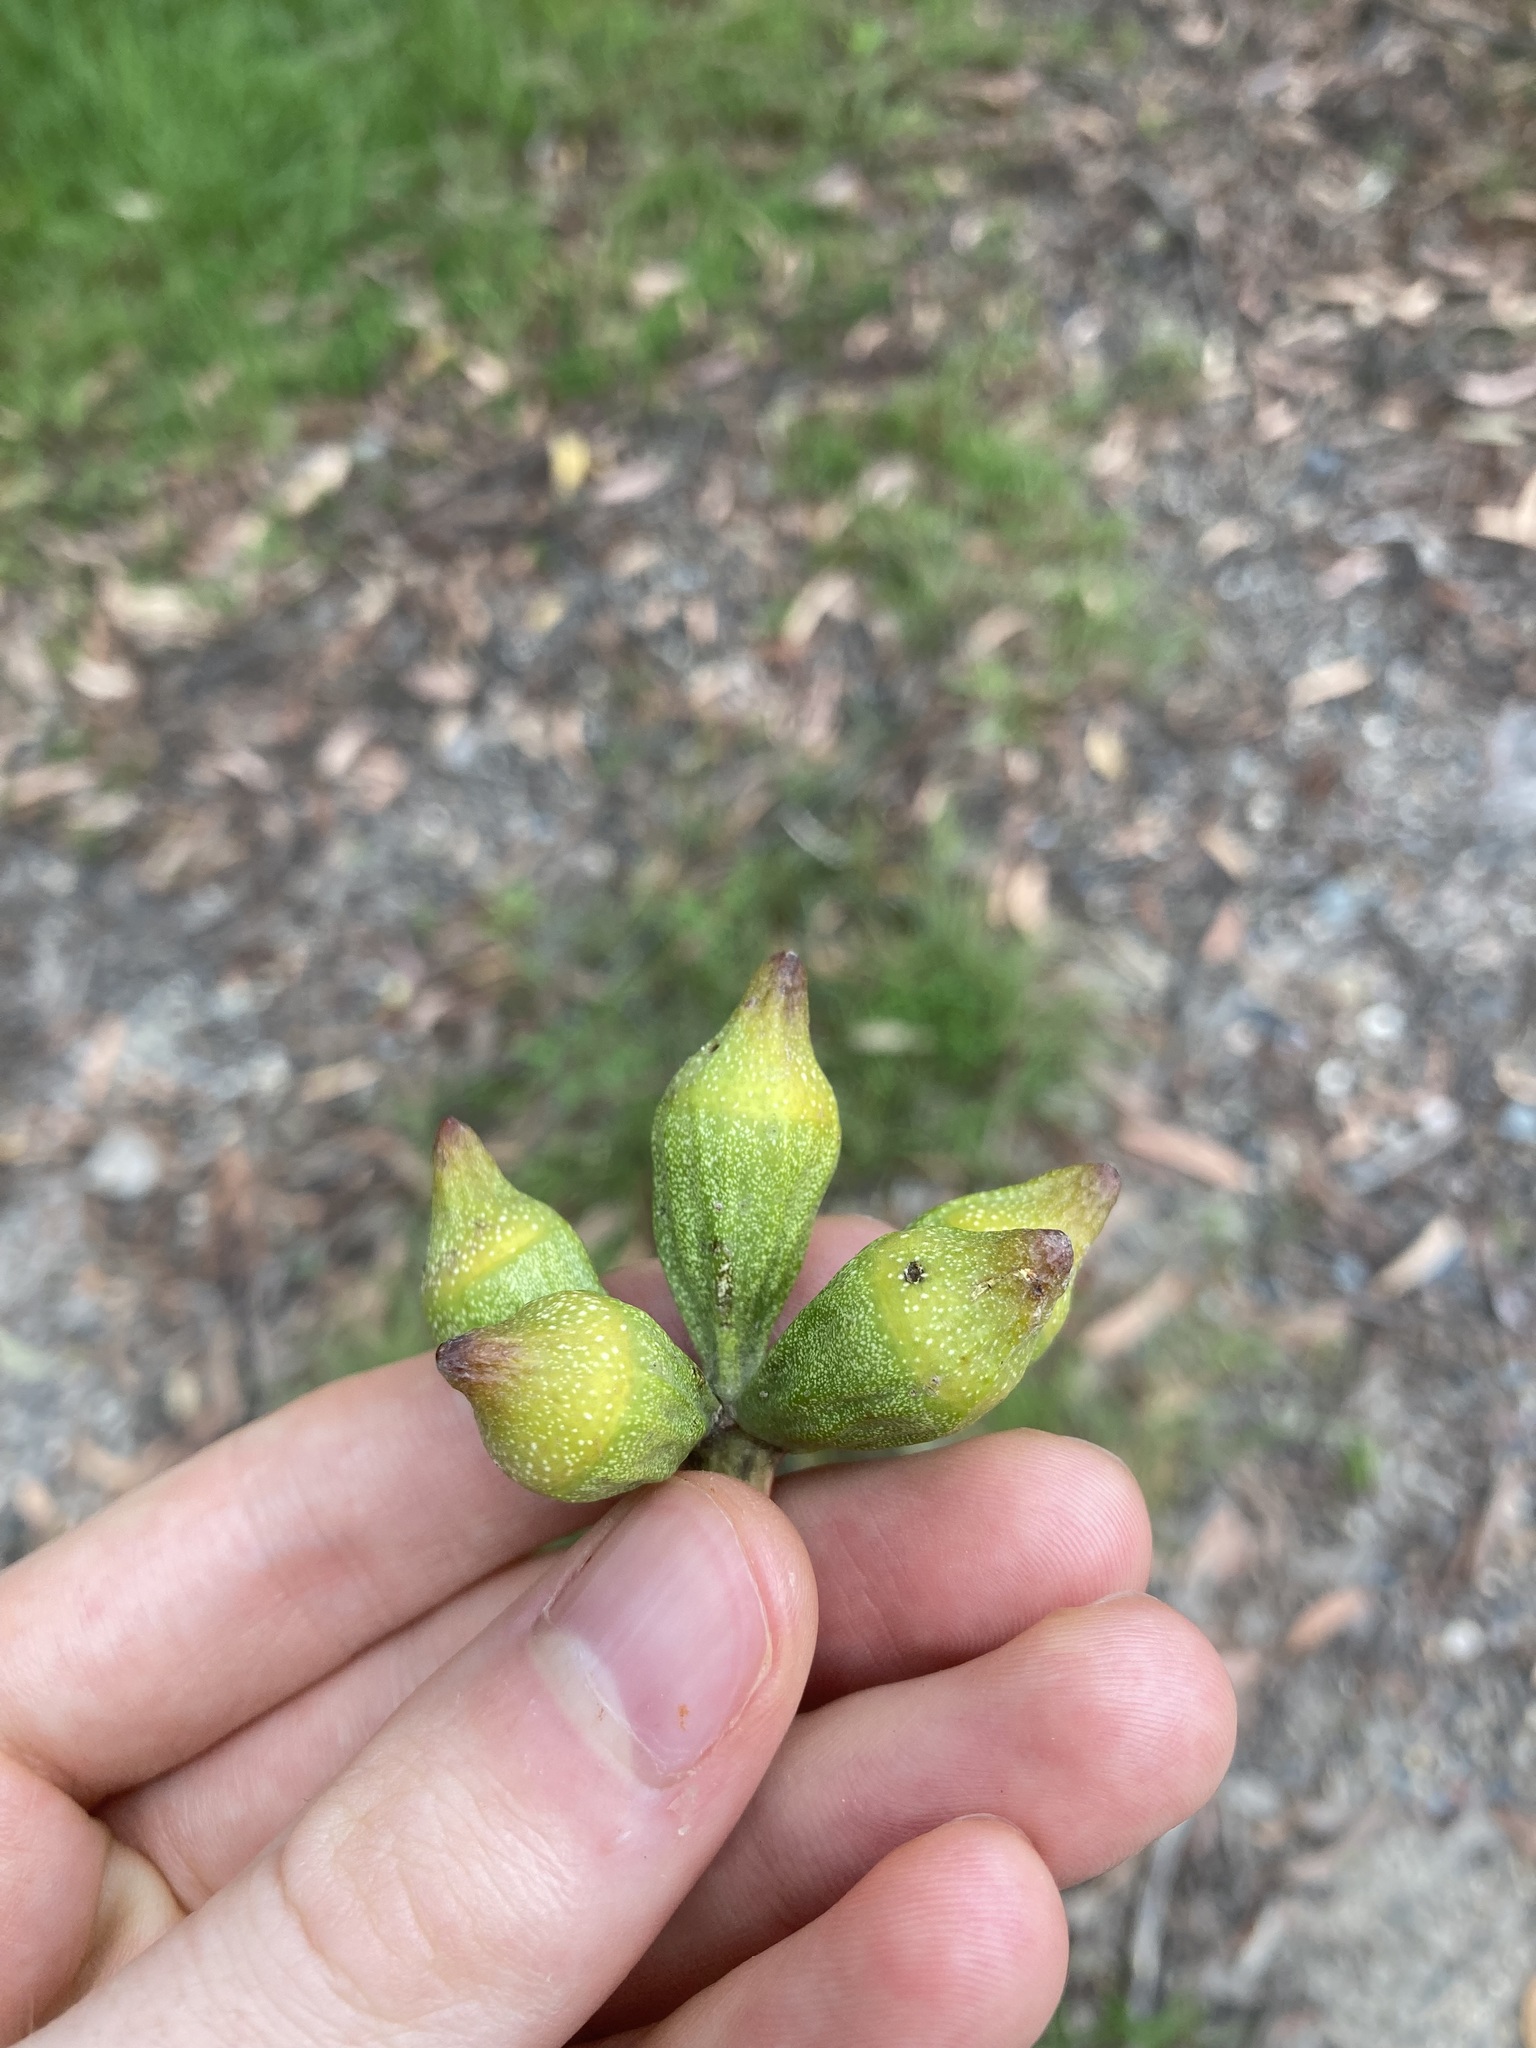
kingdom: Plantae
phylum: Tracheophyta
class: Magnoliopsida
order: Myrtales
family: Myrtaceae
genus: Eucalyptus
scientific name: Eucalyptus planchoniana
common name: Bastard-tallow-wood
